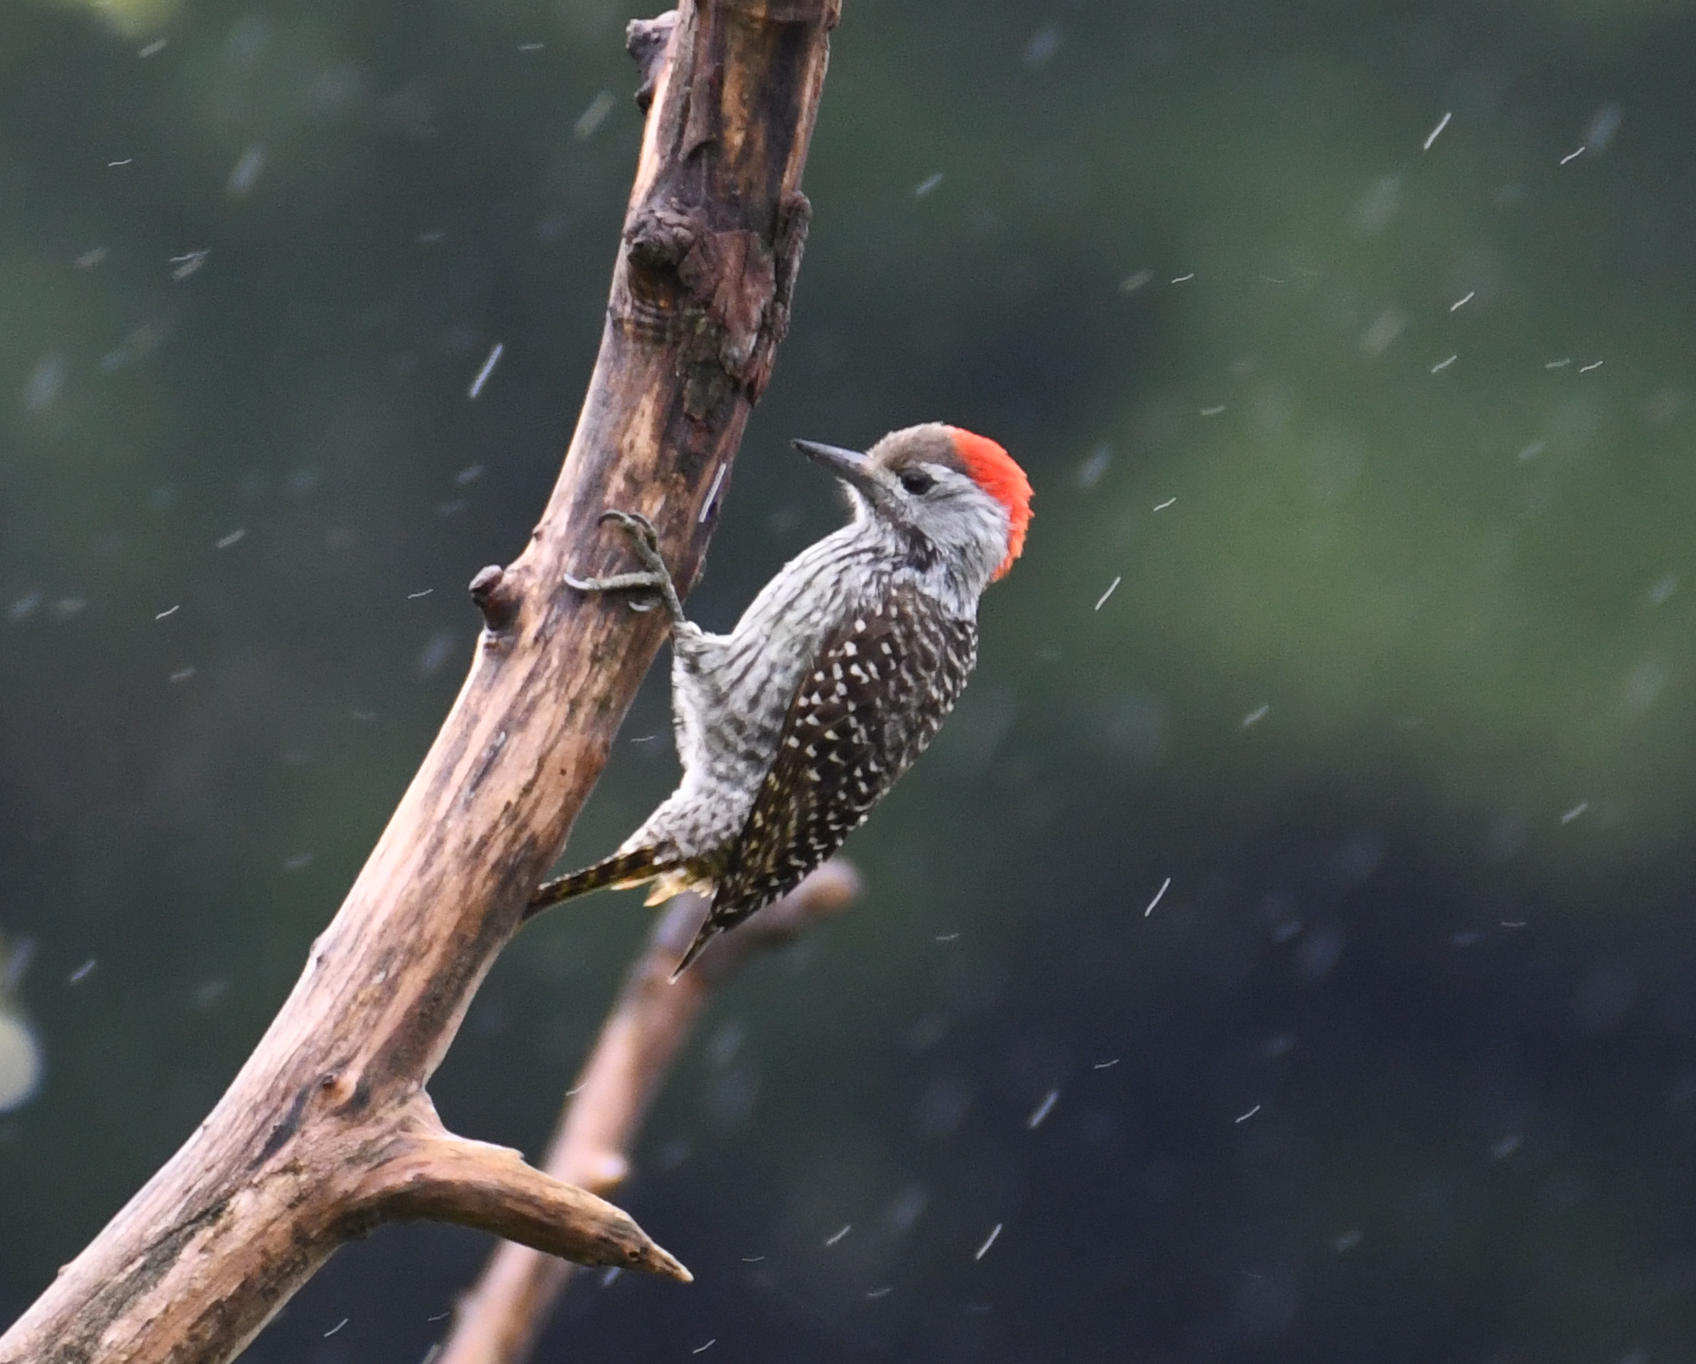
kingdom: Animalia
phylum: Chordata
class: Aves
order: Piciformes
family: Picidae
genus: Dendropicos
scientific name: Dendropicos fuscescens
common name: Cardinal woodpecker
